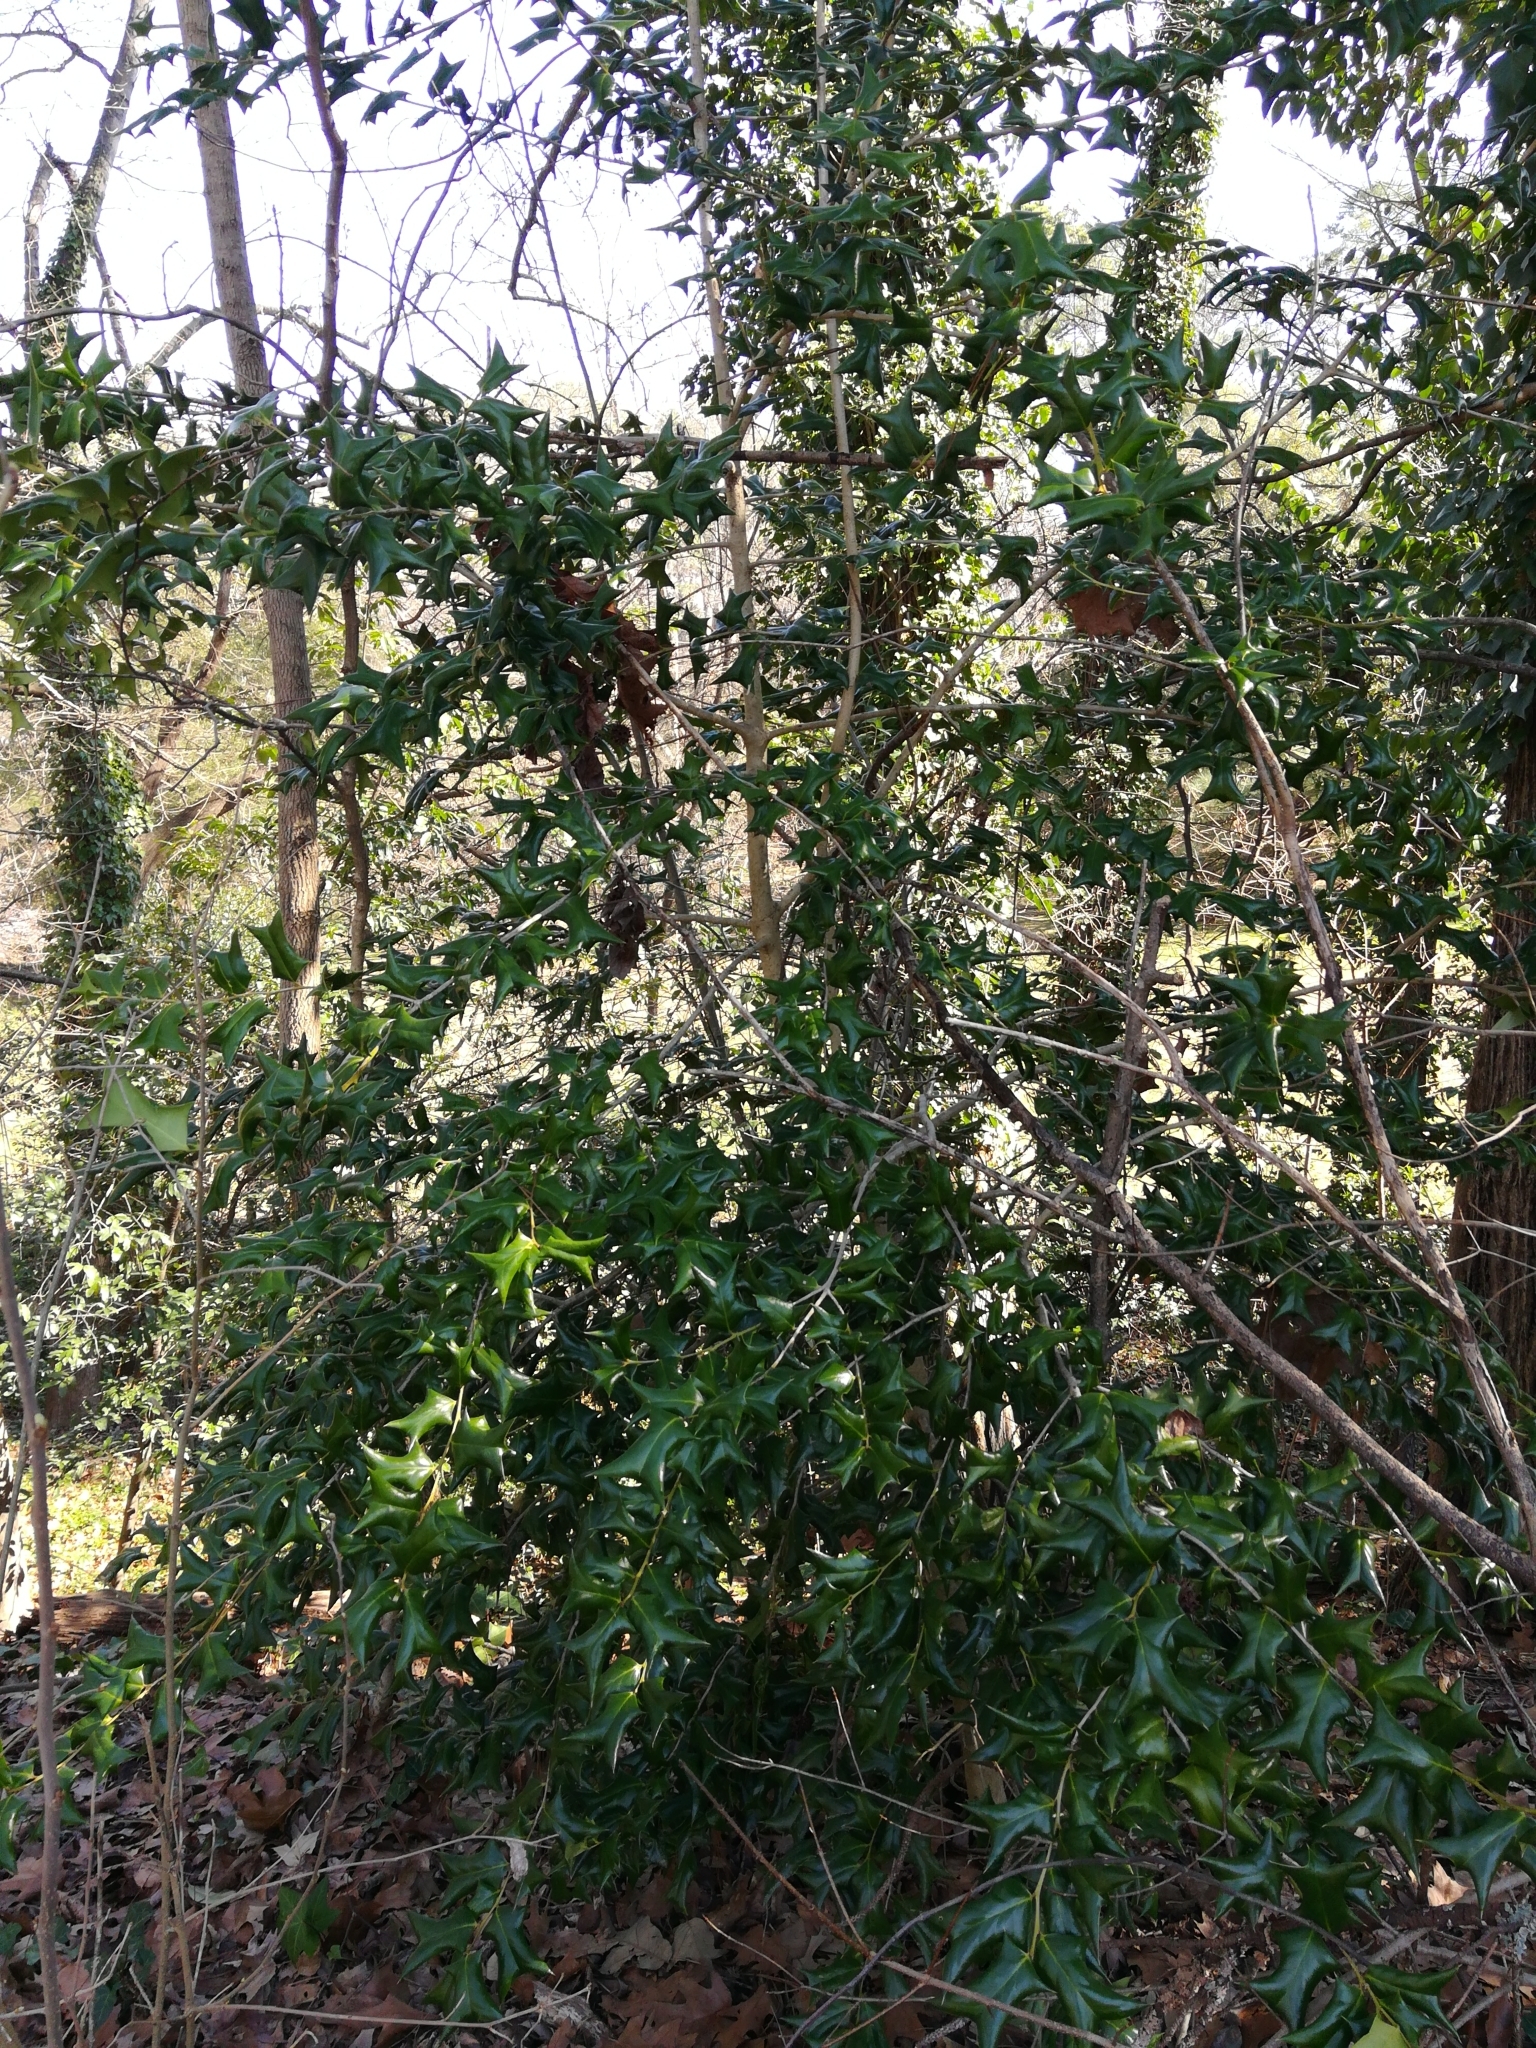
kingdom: Plantae
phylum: Tracheophyta
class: Magnoliopsida
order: Aquifoliales
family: Aquifoliaceae
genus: Ilex
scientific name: Ilex cornuta
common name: Chinese holly
